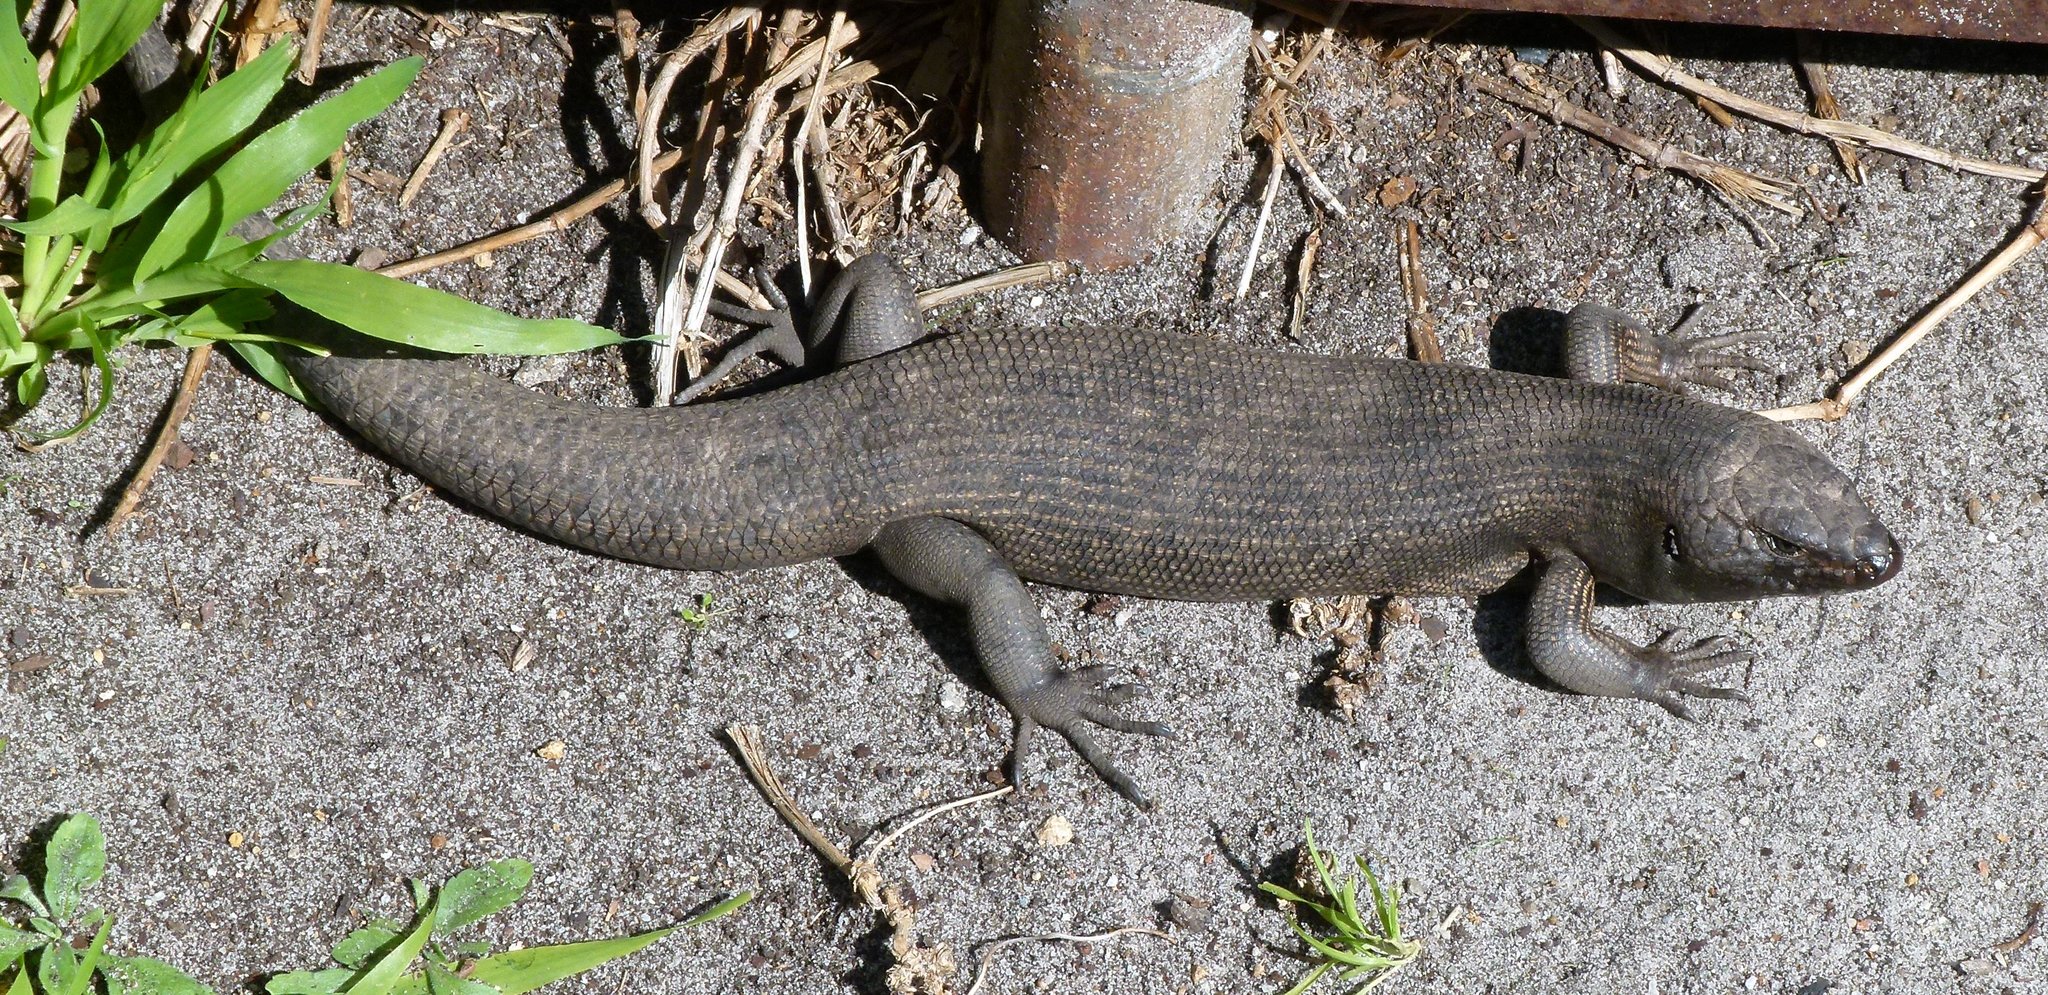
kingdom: Animalia
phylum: Chordata
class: Squamata
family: Scincidae
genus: Egernia
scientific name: Egernia kingii
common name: King's skink
